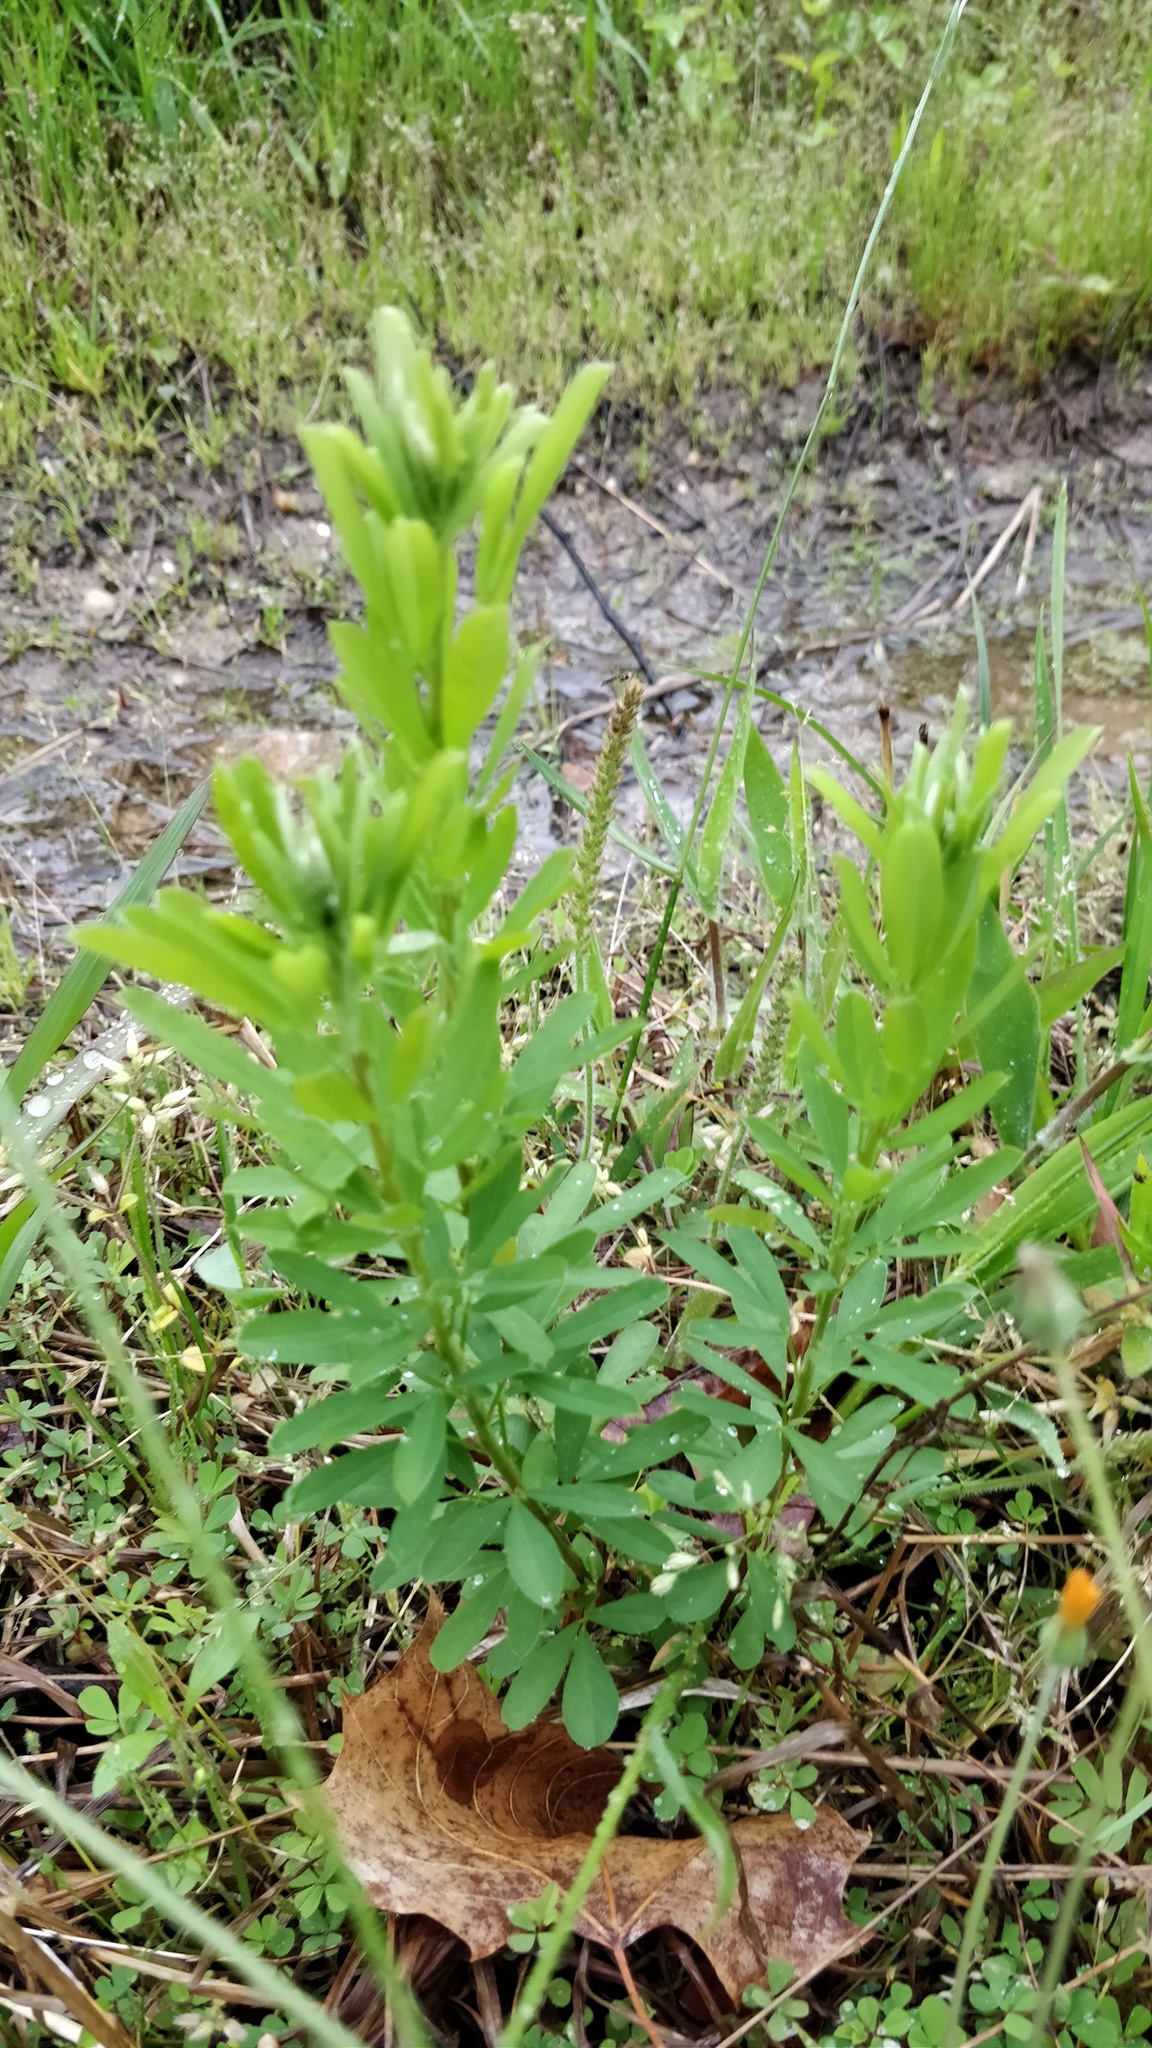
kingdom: Plantae
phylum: Tracheophyta
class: Magnoliopsida
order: Fabales
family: Fabaceae
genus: Lespedeza
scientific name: Lespedeza cuneata
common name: Chinese bush-clover
